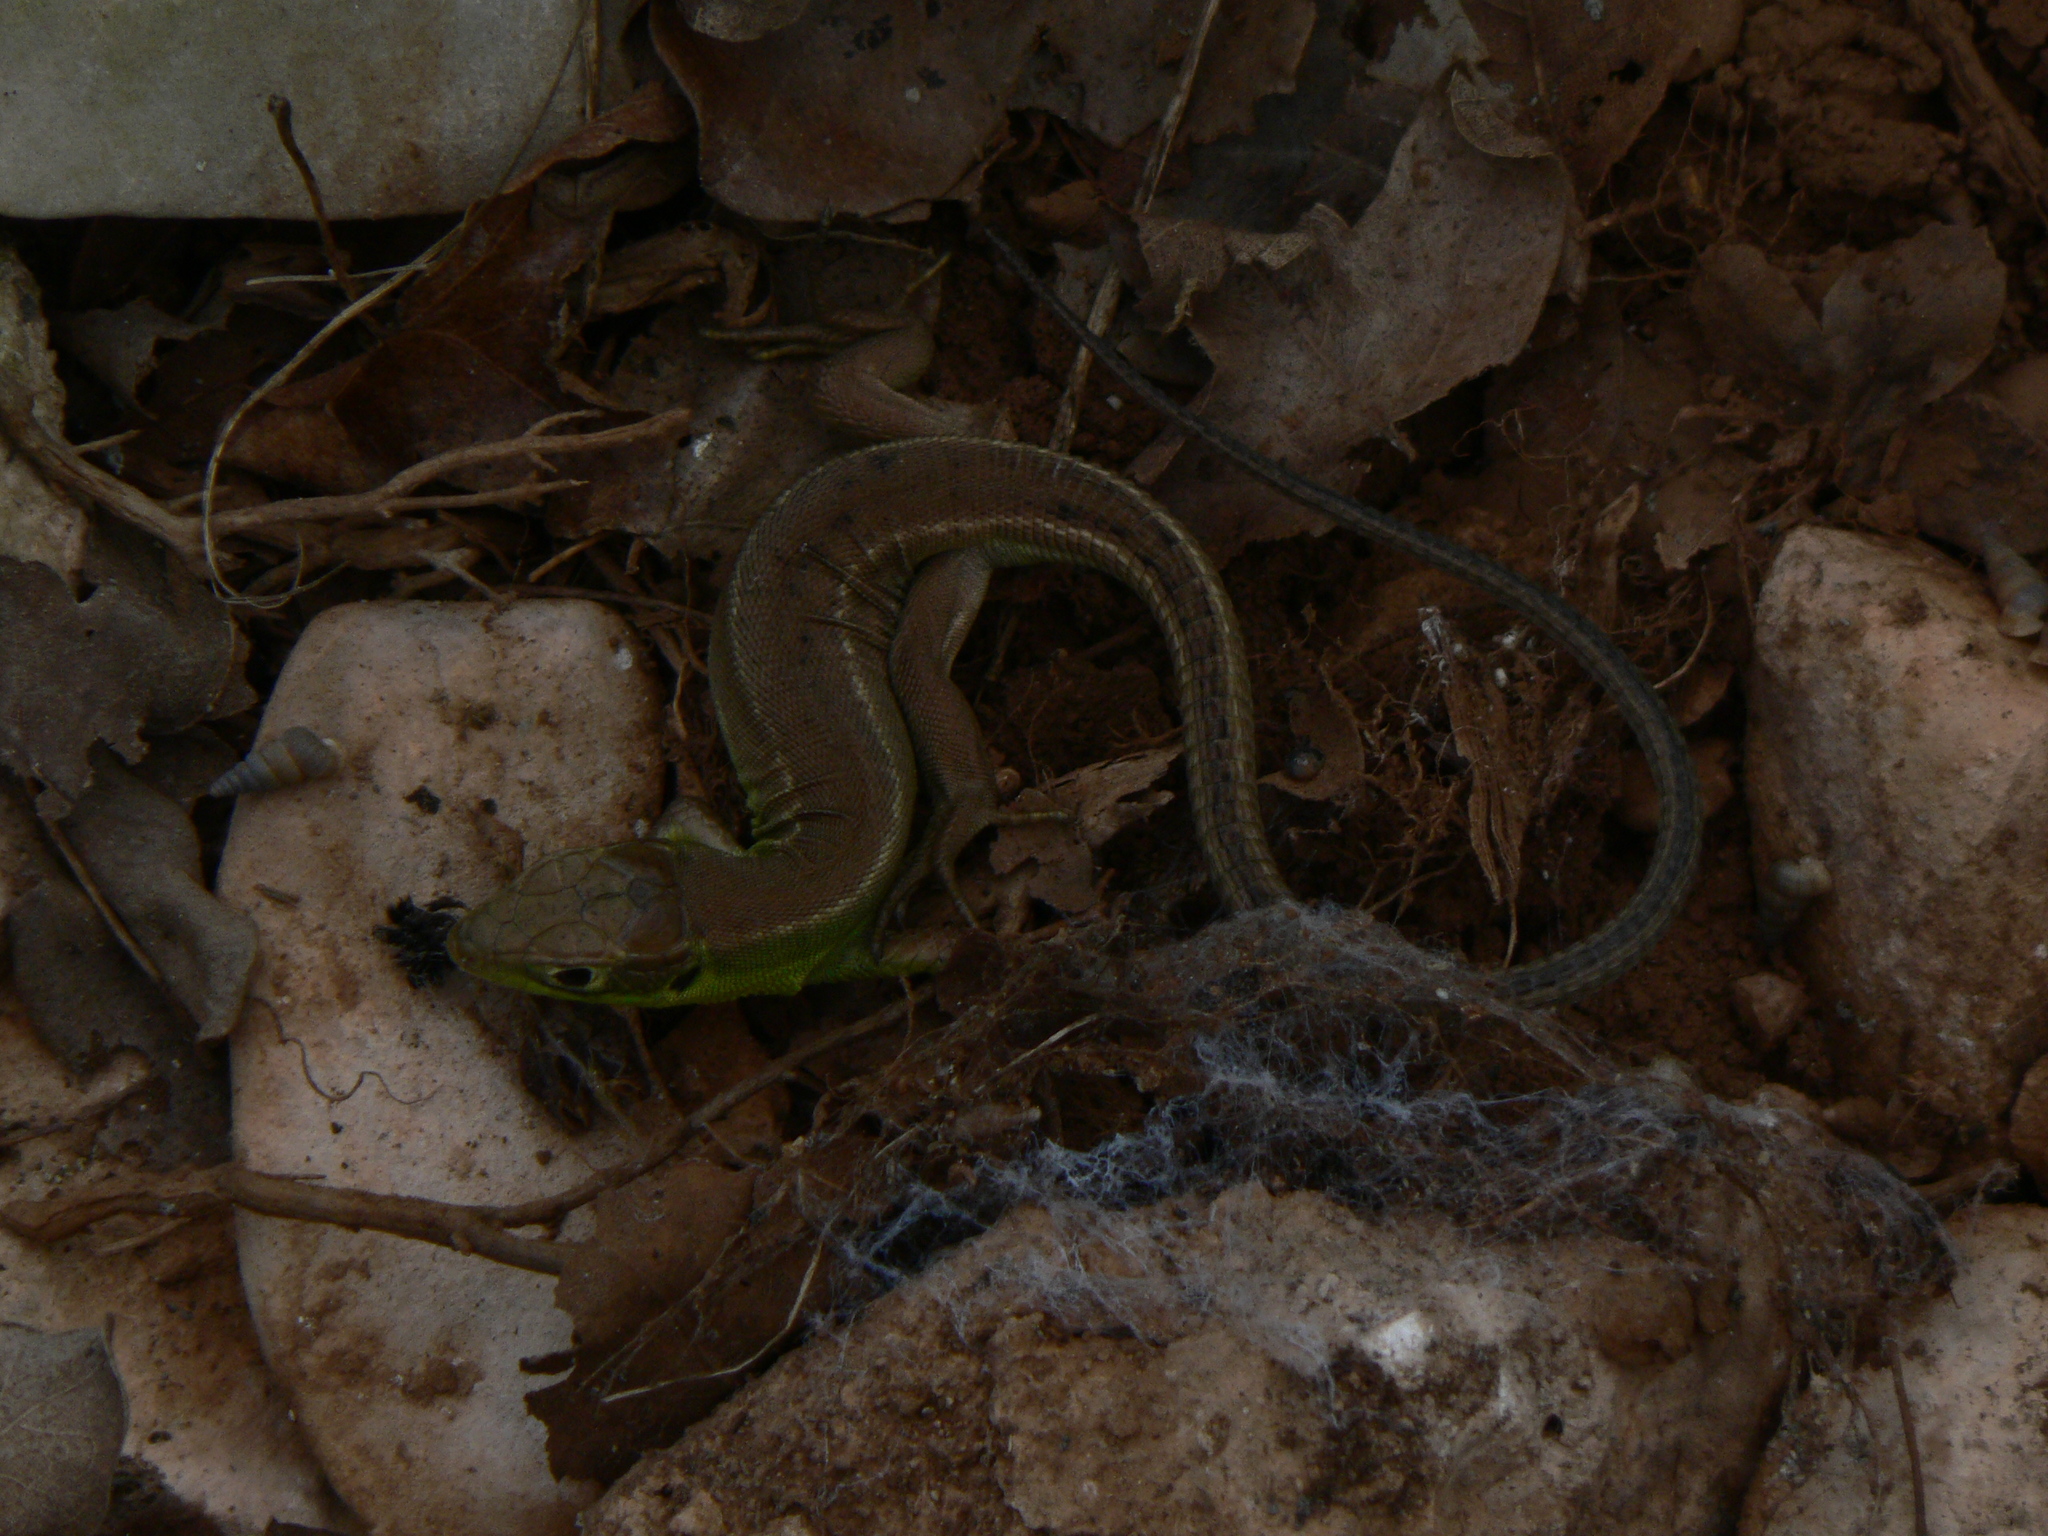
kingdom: Animalia
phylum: Chordata
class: Squamata
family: Lacertidae
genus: Lacerta
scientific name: Lacerta bilineata
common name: Western green lizard
